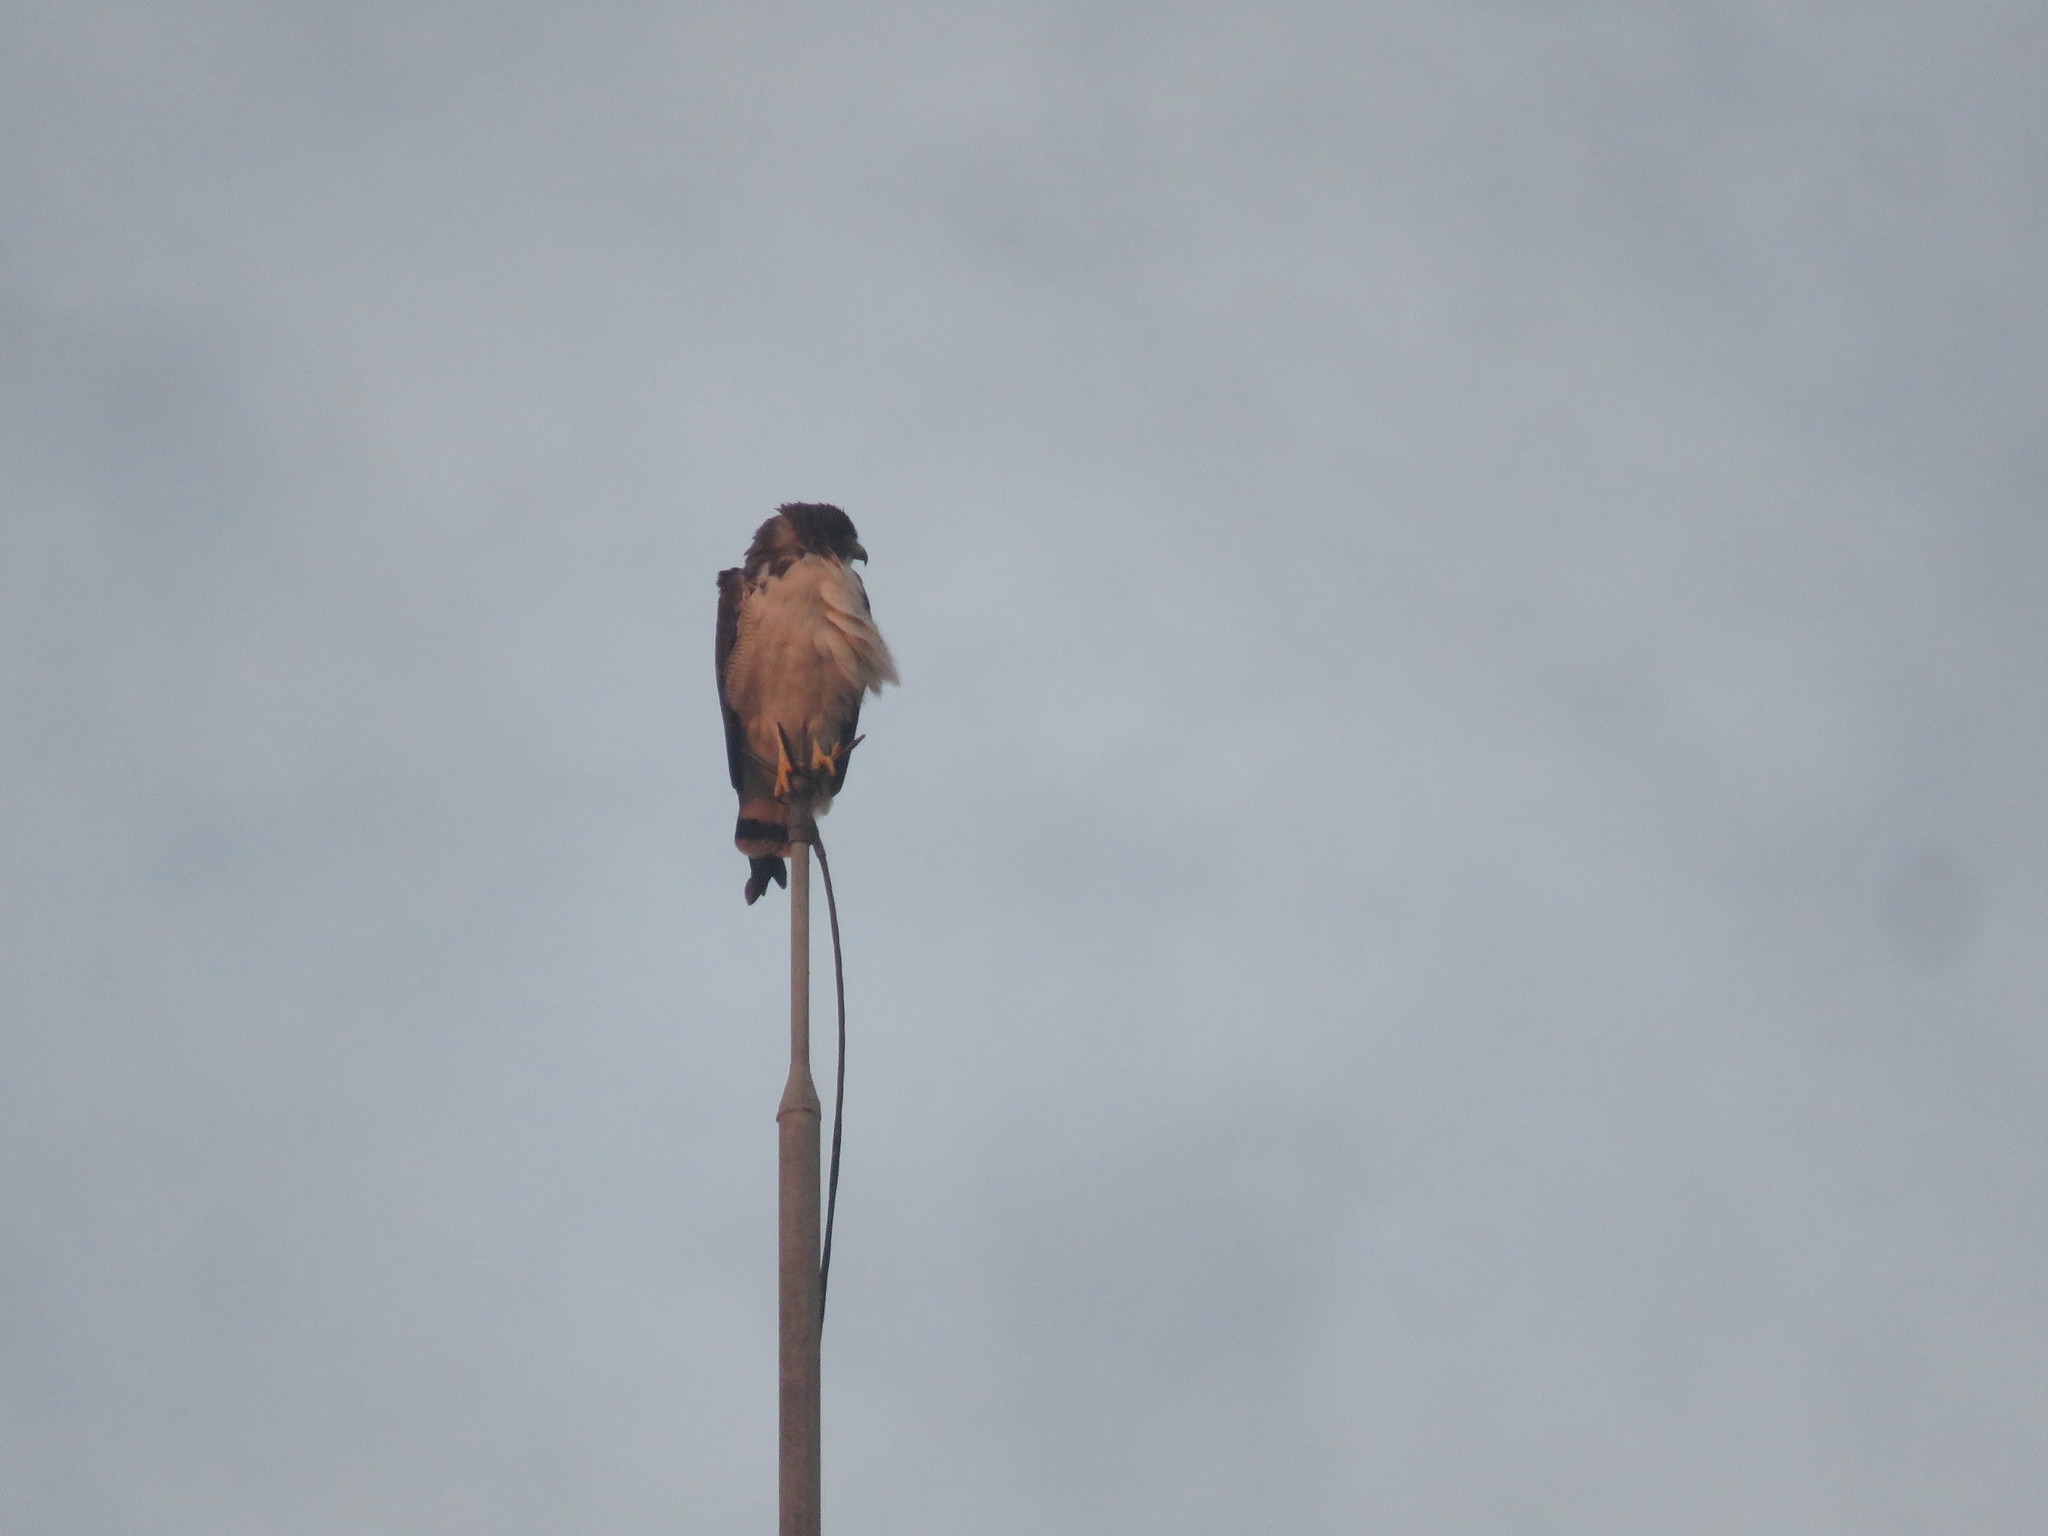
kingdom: Animalia
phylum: Chordata
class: Aves
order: Accipitriformes
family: Accipitridae
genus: Buteo
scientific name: Buteo albicaudatus
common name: White-tailed hawk
